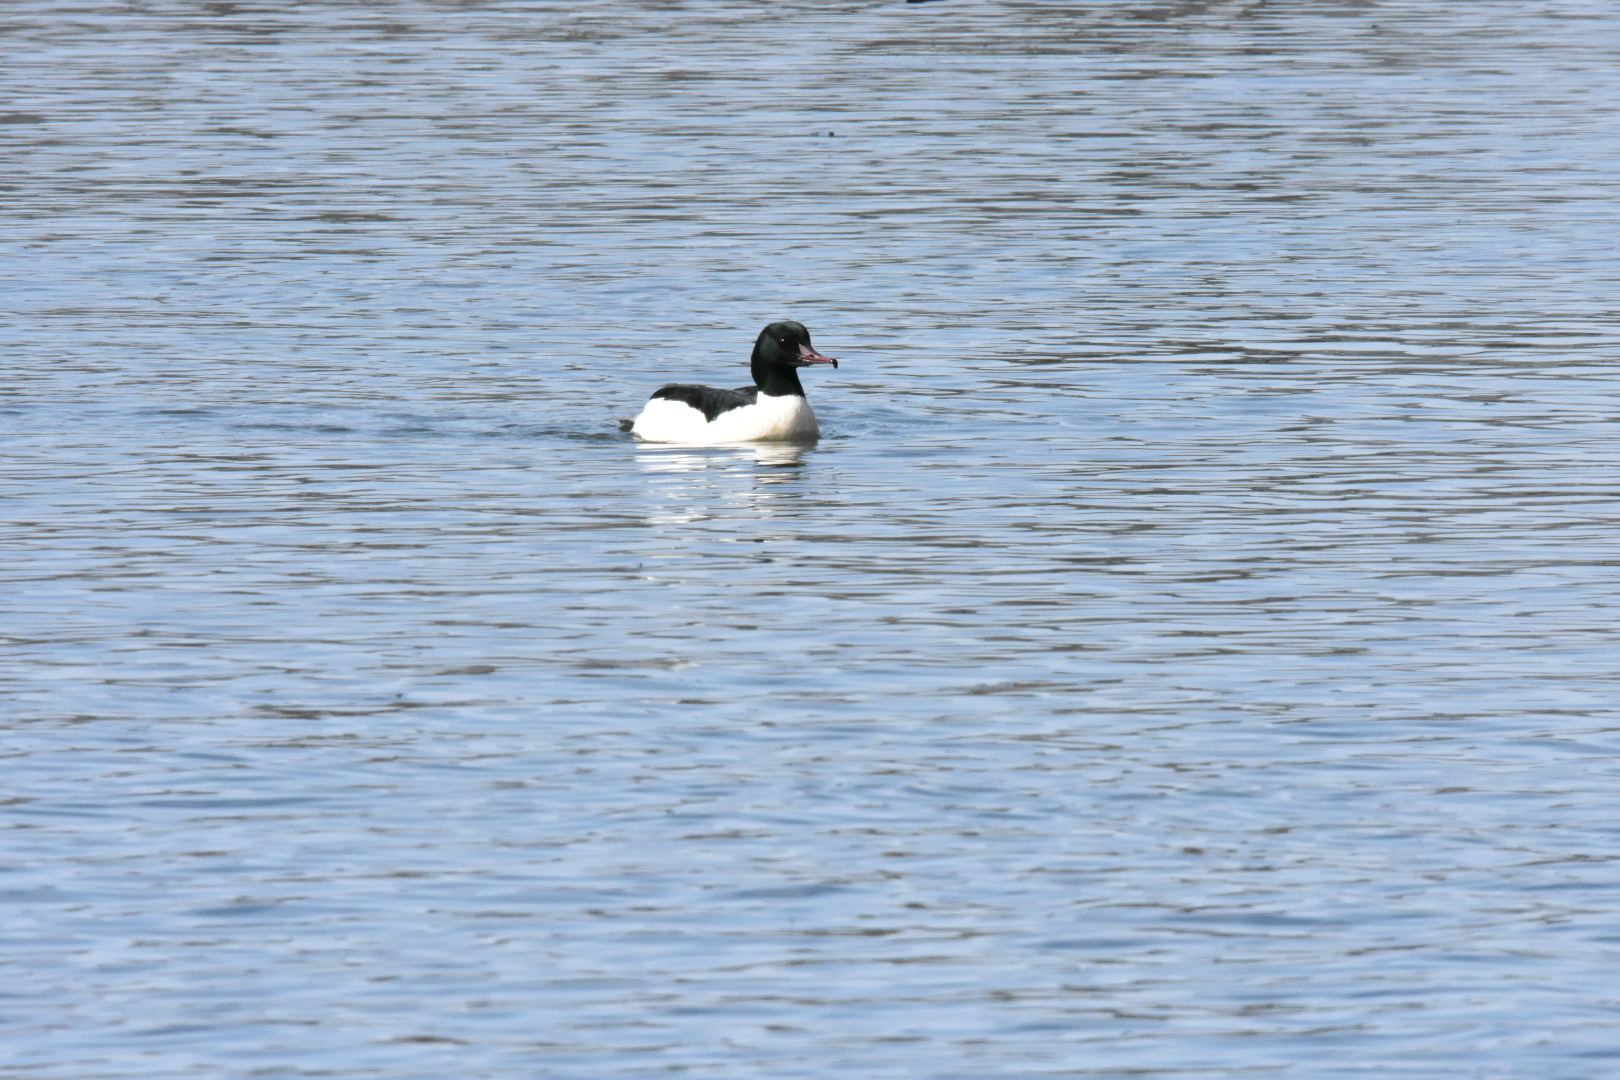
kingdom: Animalia
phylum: Chordata
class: Aves
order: Anseriformes
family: Anatidae
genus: Mergus
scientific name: Mergus merganser
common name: Common merganser
